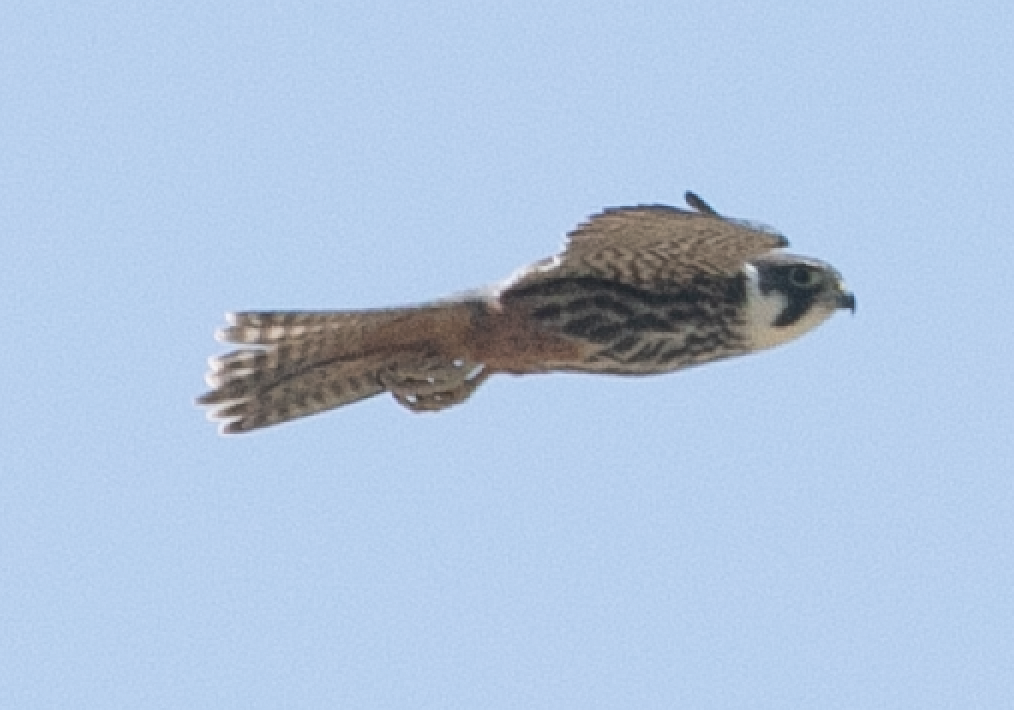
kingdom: Animalia
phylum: Chordata
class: Aves
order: Falconiformes
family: Falconidae
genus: Falco
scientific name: Falco subbuteo
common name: Eurasian hobby
